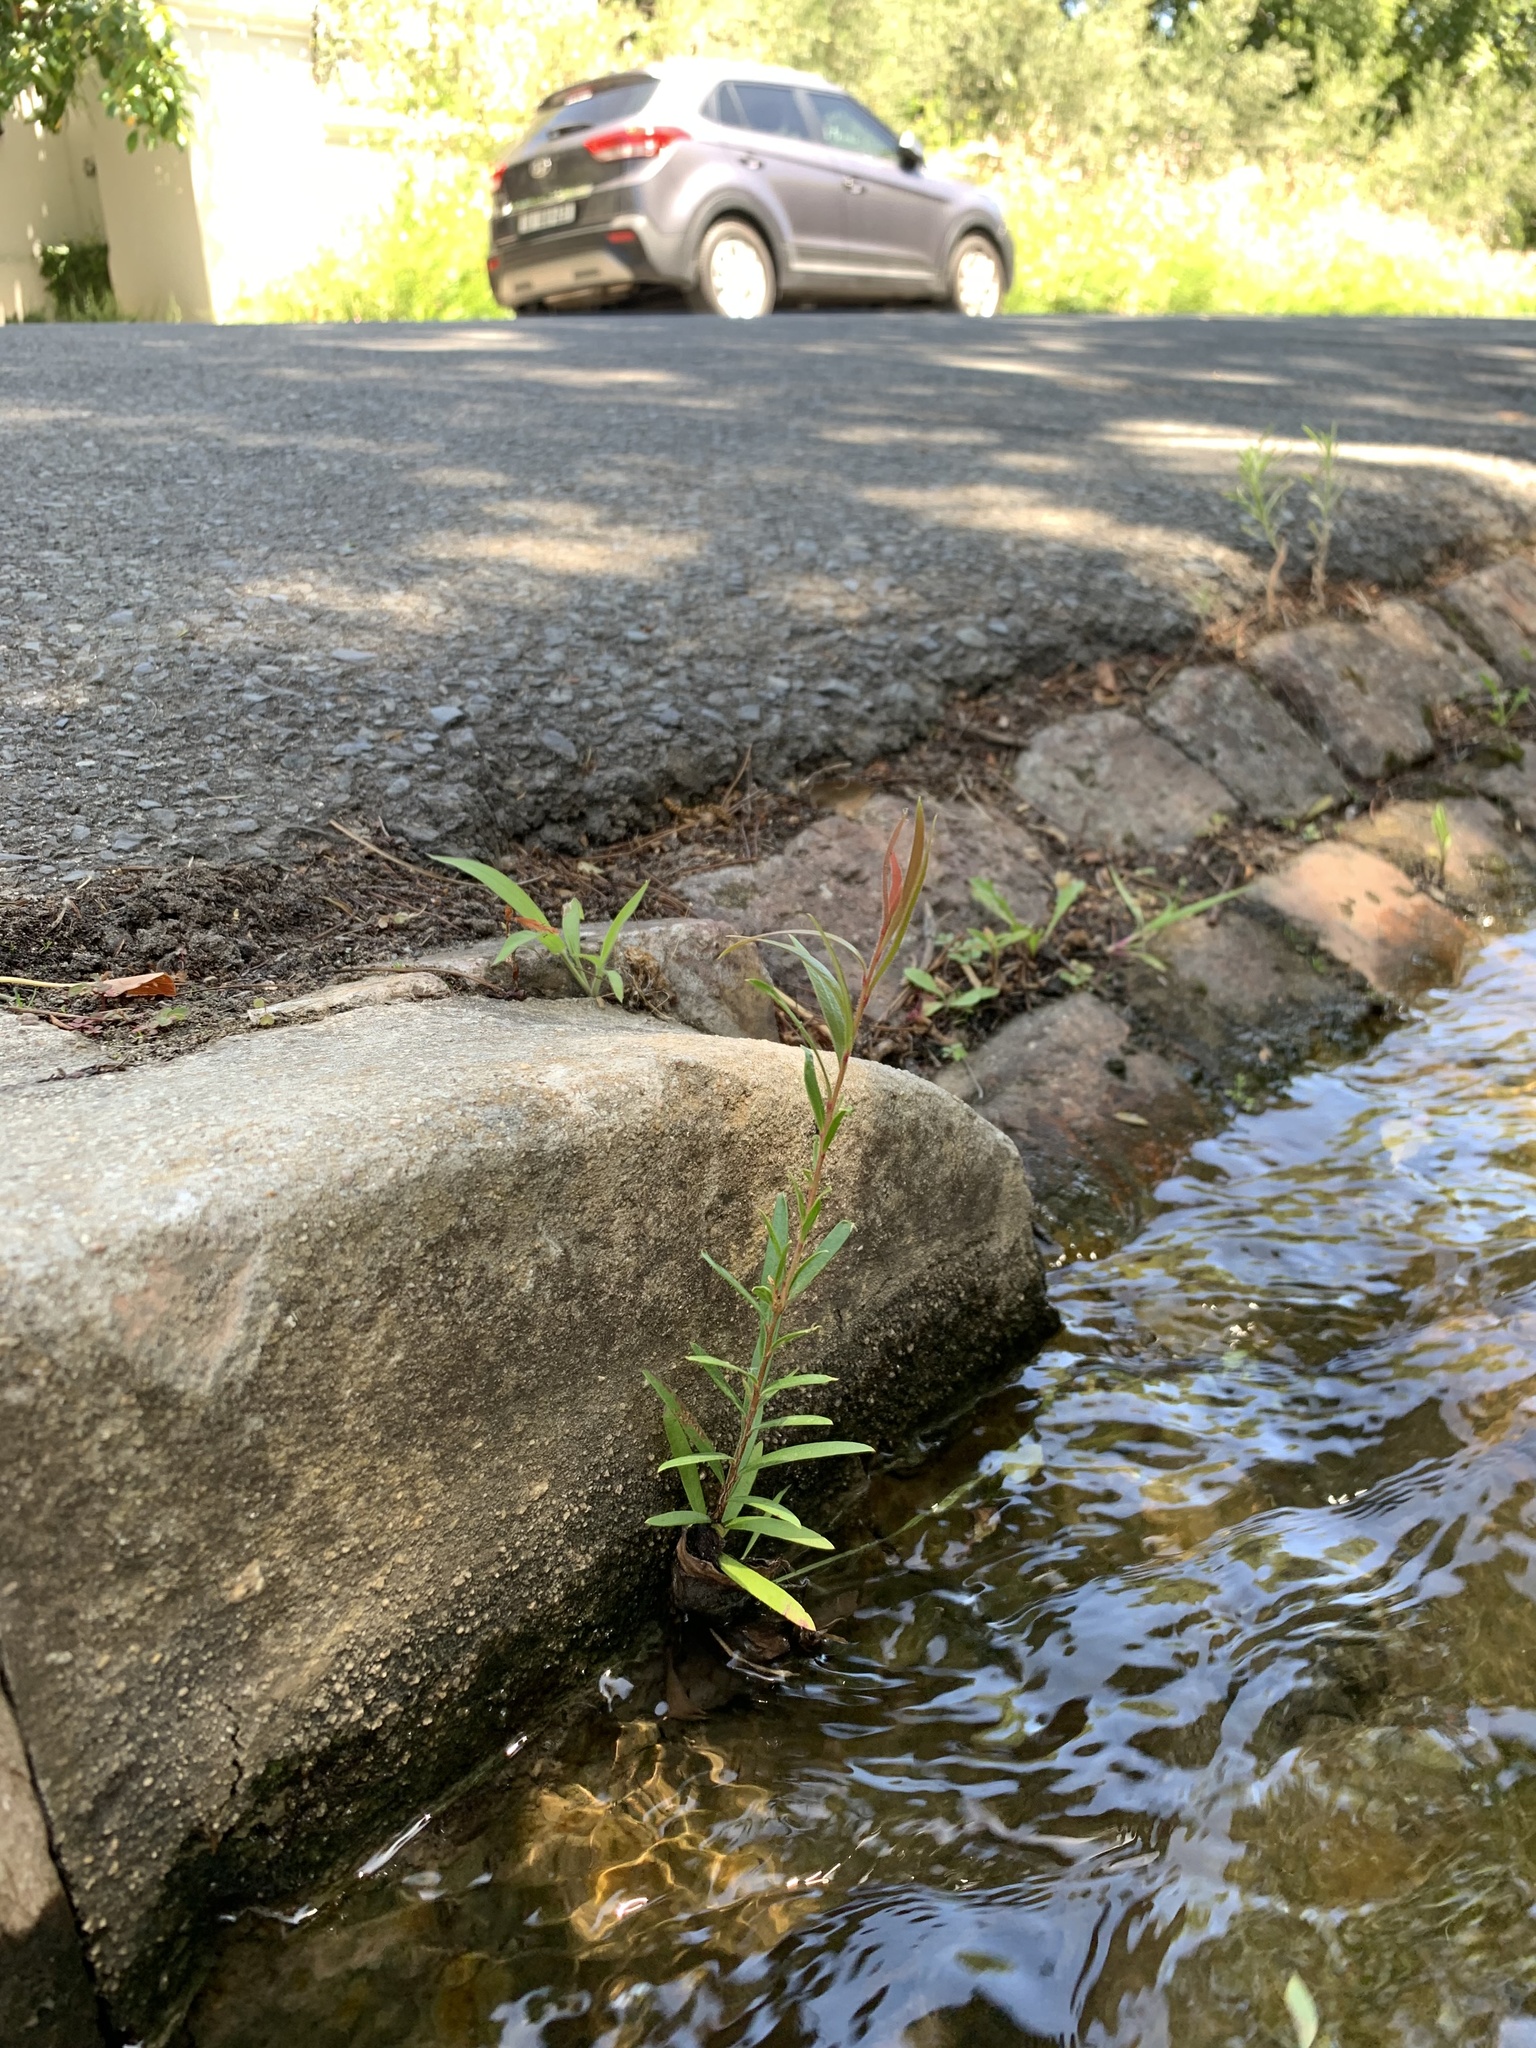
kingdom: Plantae
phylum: Tracheophyta
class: Magnoliopsida
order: Myrtales
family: Myrtaceae
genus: Callistemon
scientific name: Callistemon viminalis
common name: Drooping bottlebrush
